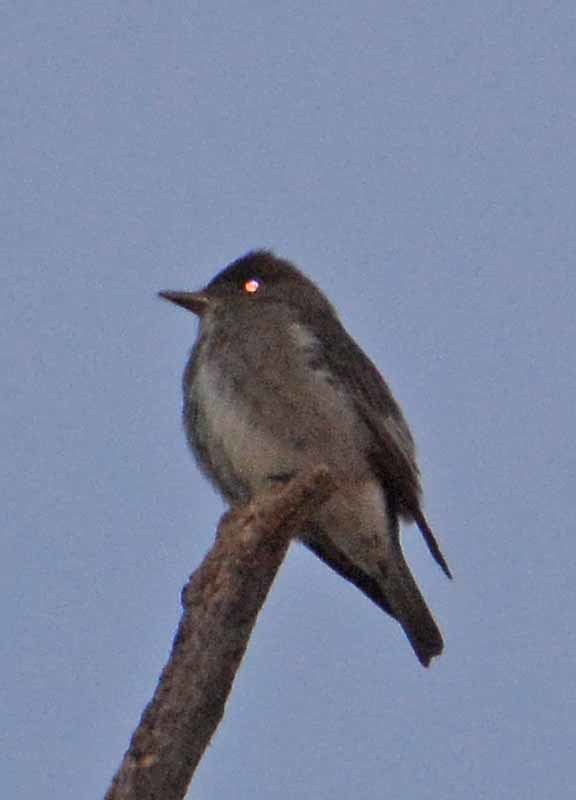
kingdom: Animalia
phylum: Chordata
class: Aves
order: Passeriformes
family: Tyrannidae
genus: Contopus
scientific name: Contopus cooperi
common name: Olive-sided flycatcher
